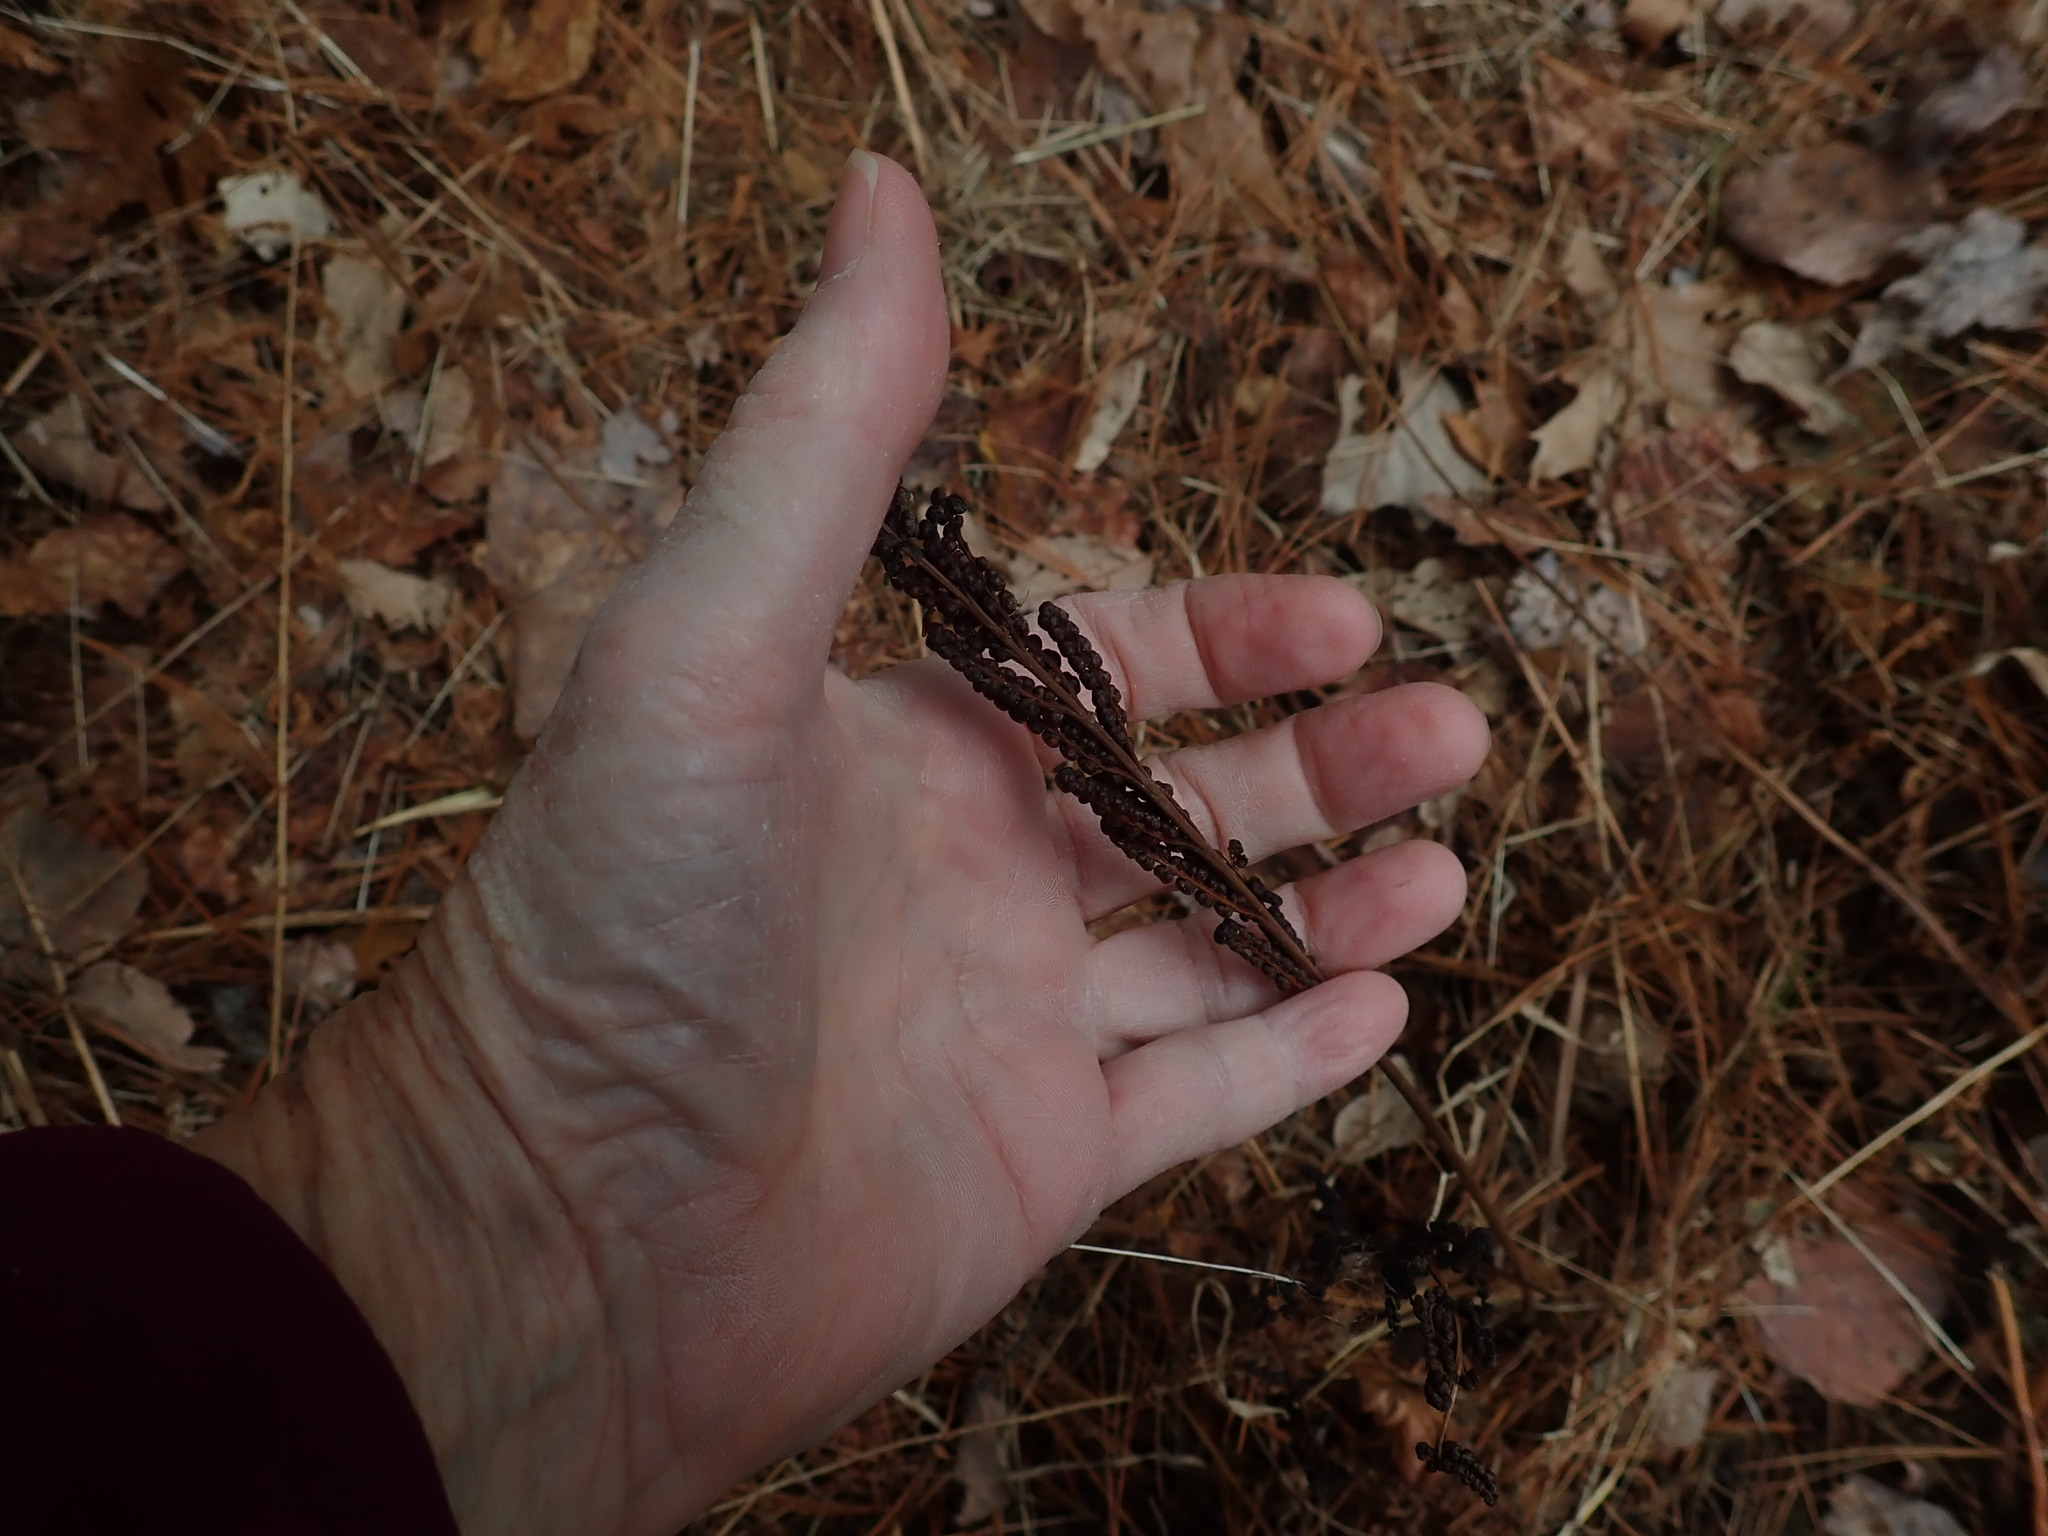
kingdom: Plantae
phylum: Tracheophyta
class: Polypodiopsida
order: Polypodiales
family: Onocleaceae
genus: Onoclea
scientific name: Onoclea sensibilis
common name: Sensitive fern
